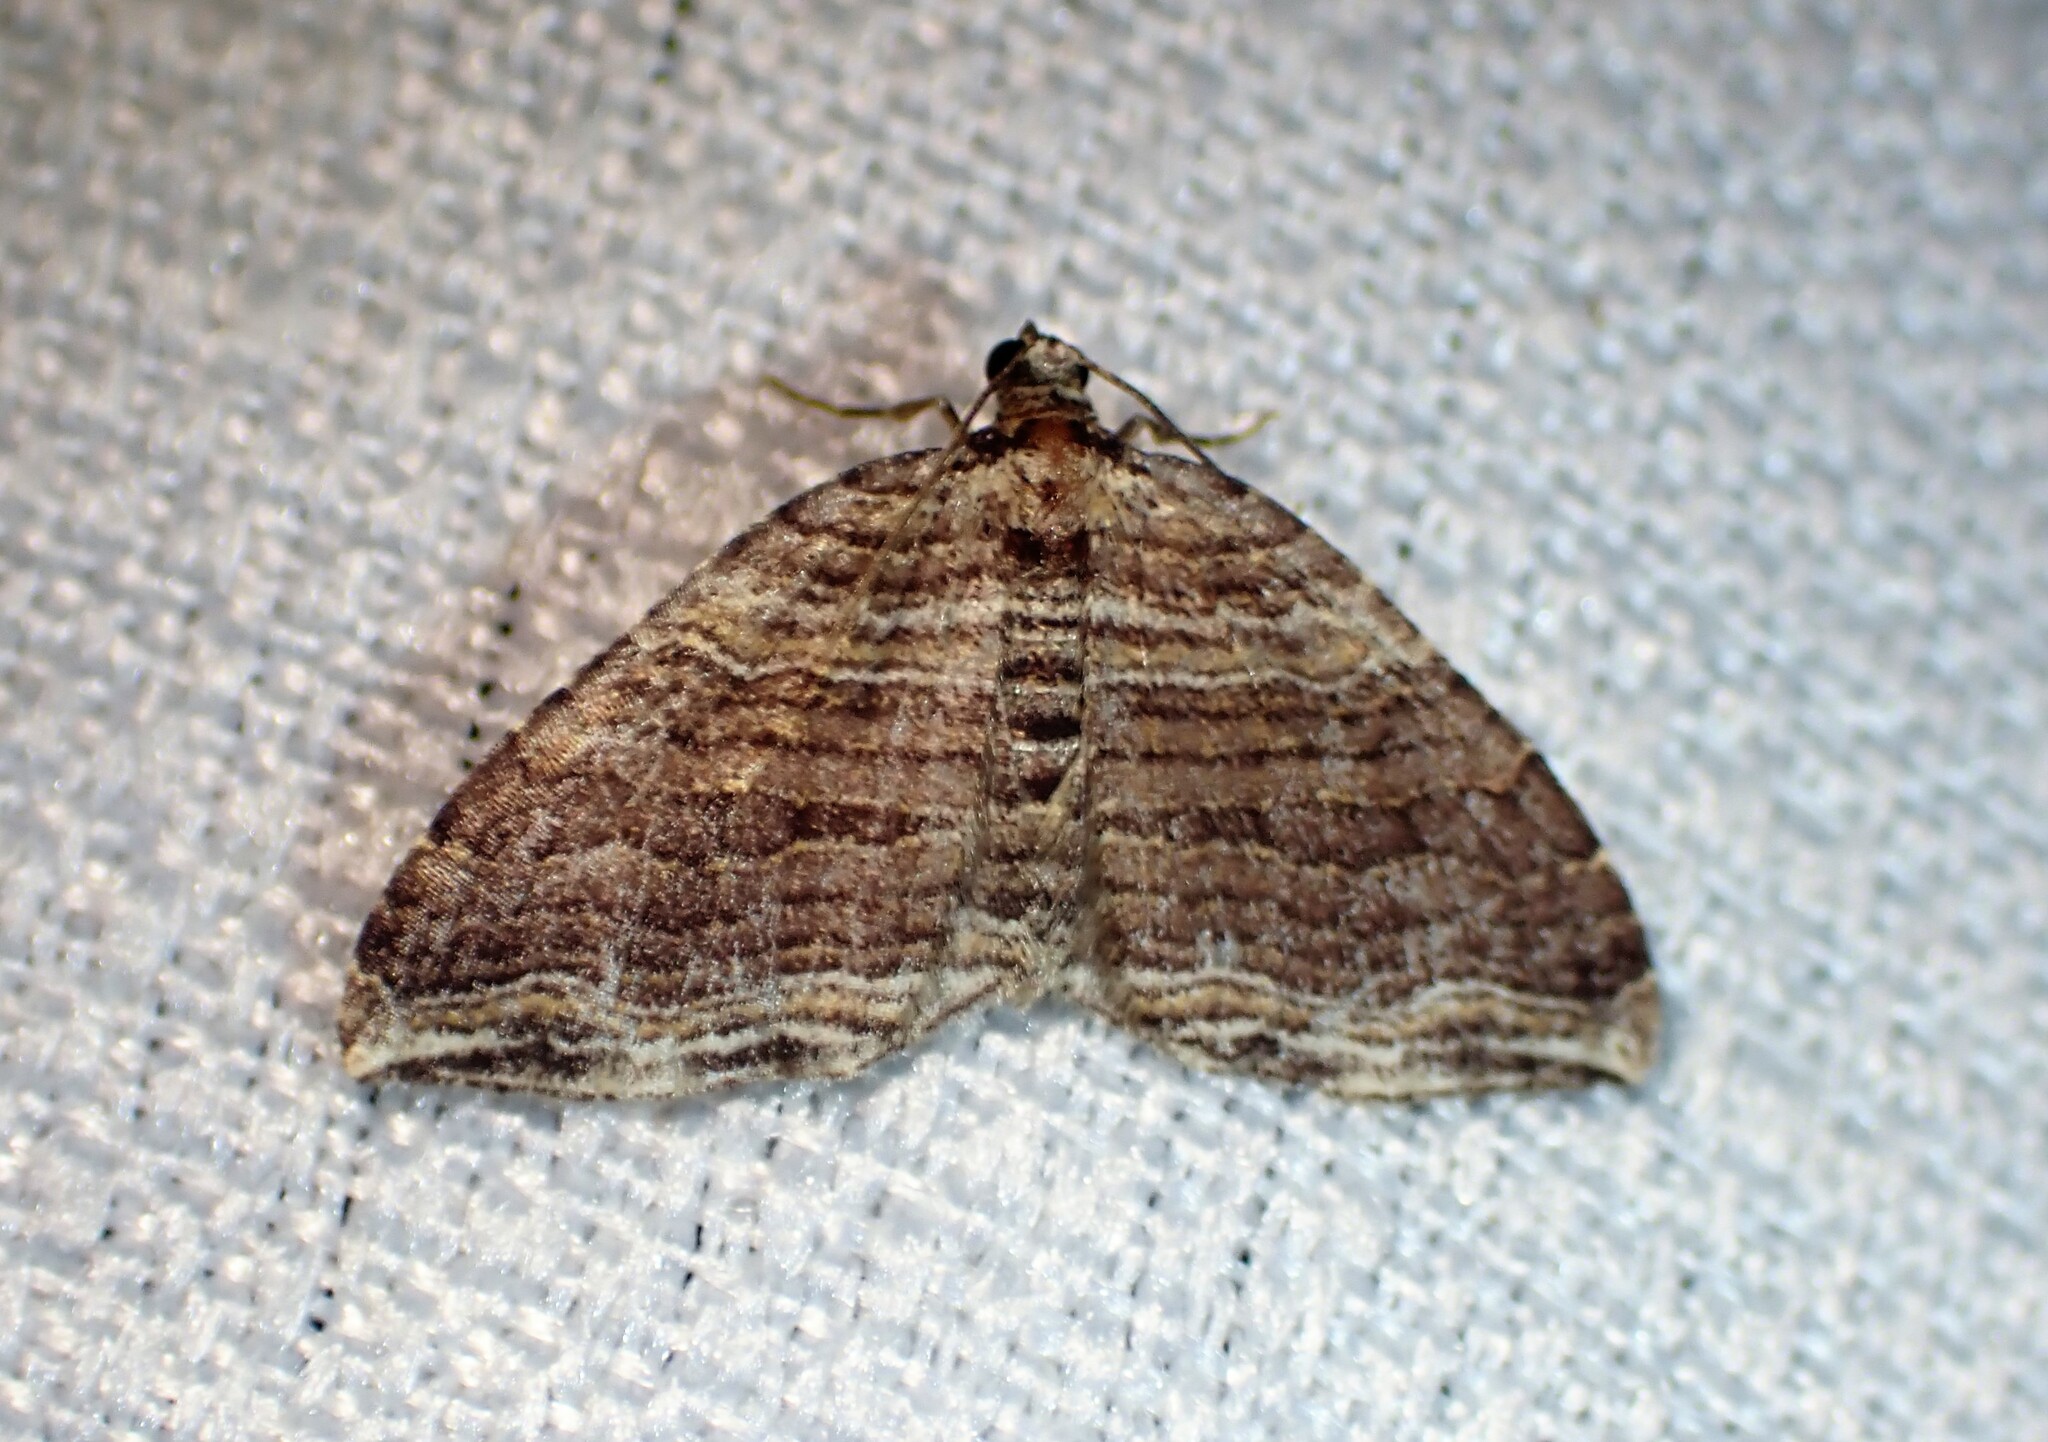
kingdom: Animalia
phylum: Arthropoda
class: Insecta
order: Lepidoptera
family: Geometridae
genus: Anticlea
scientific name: Anticlea multiferata
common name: Many-lined carpet
